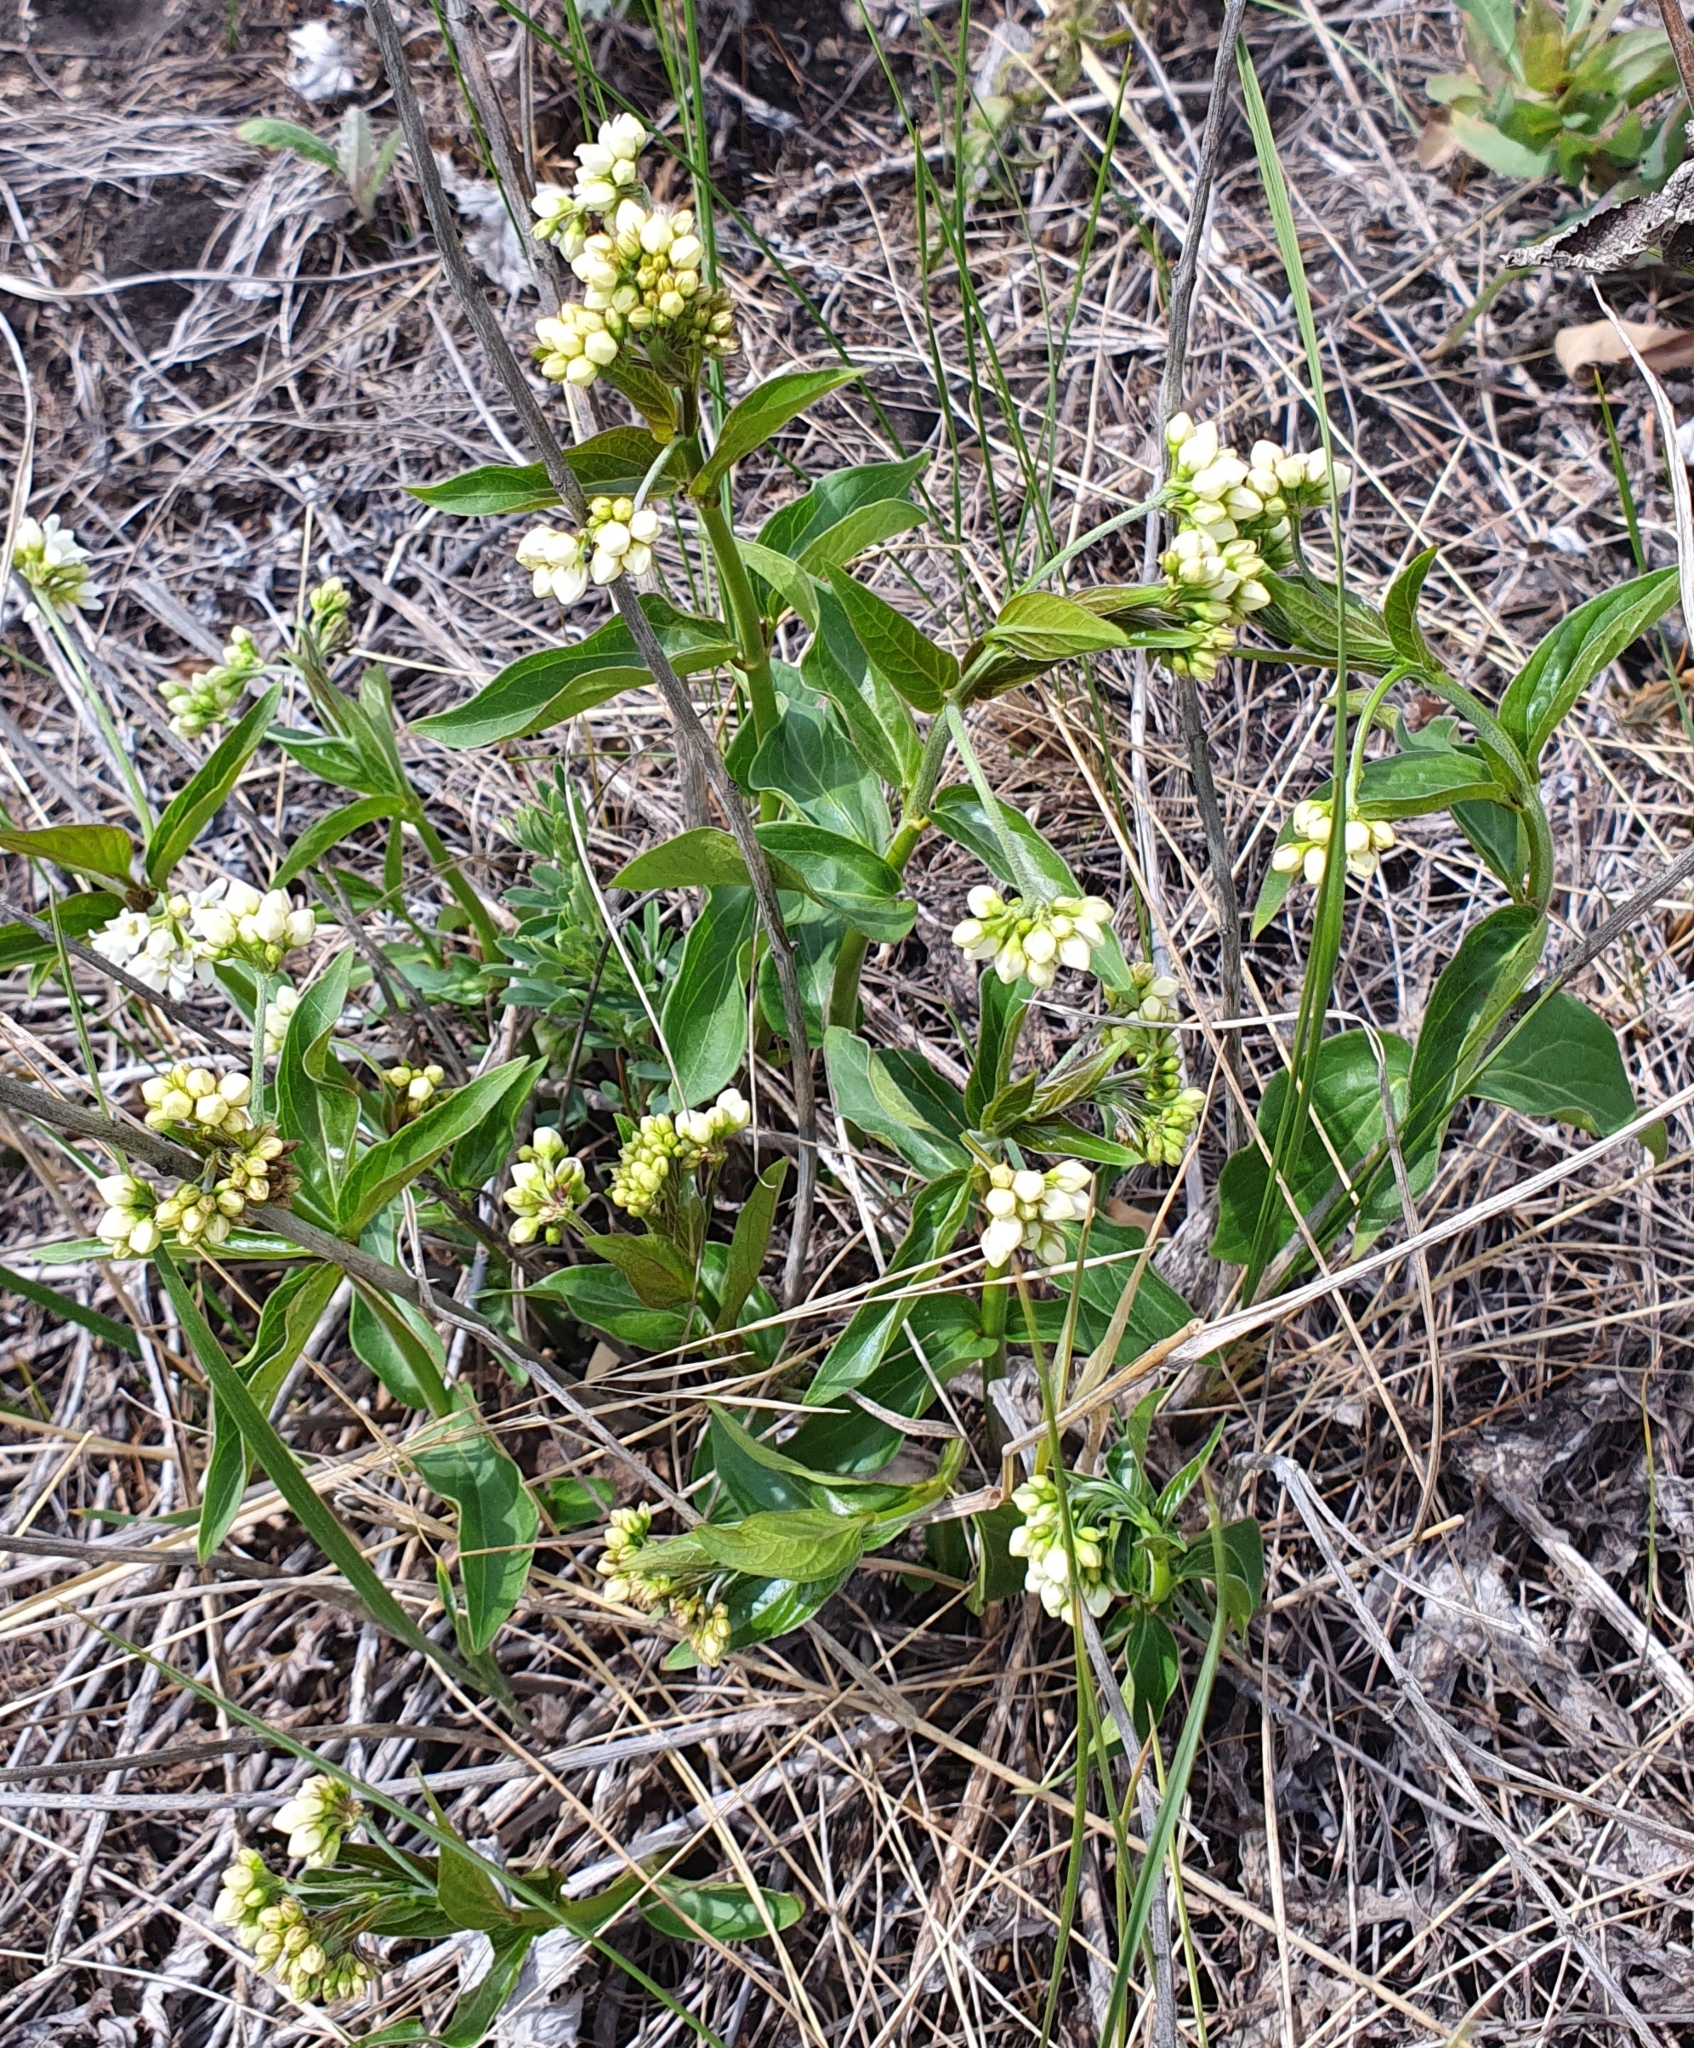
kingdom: Plantae
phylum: Tracheophyta
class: Magnoliopsida
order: Gentianales
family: Apocynaceae
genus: Vincetoxicum
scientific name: Vincetoxicum hirundinaria
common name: White swallowwort
